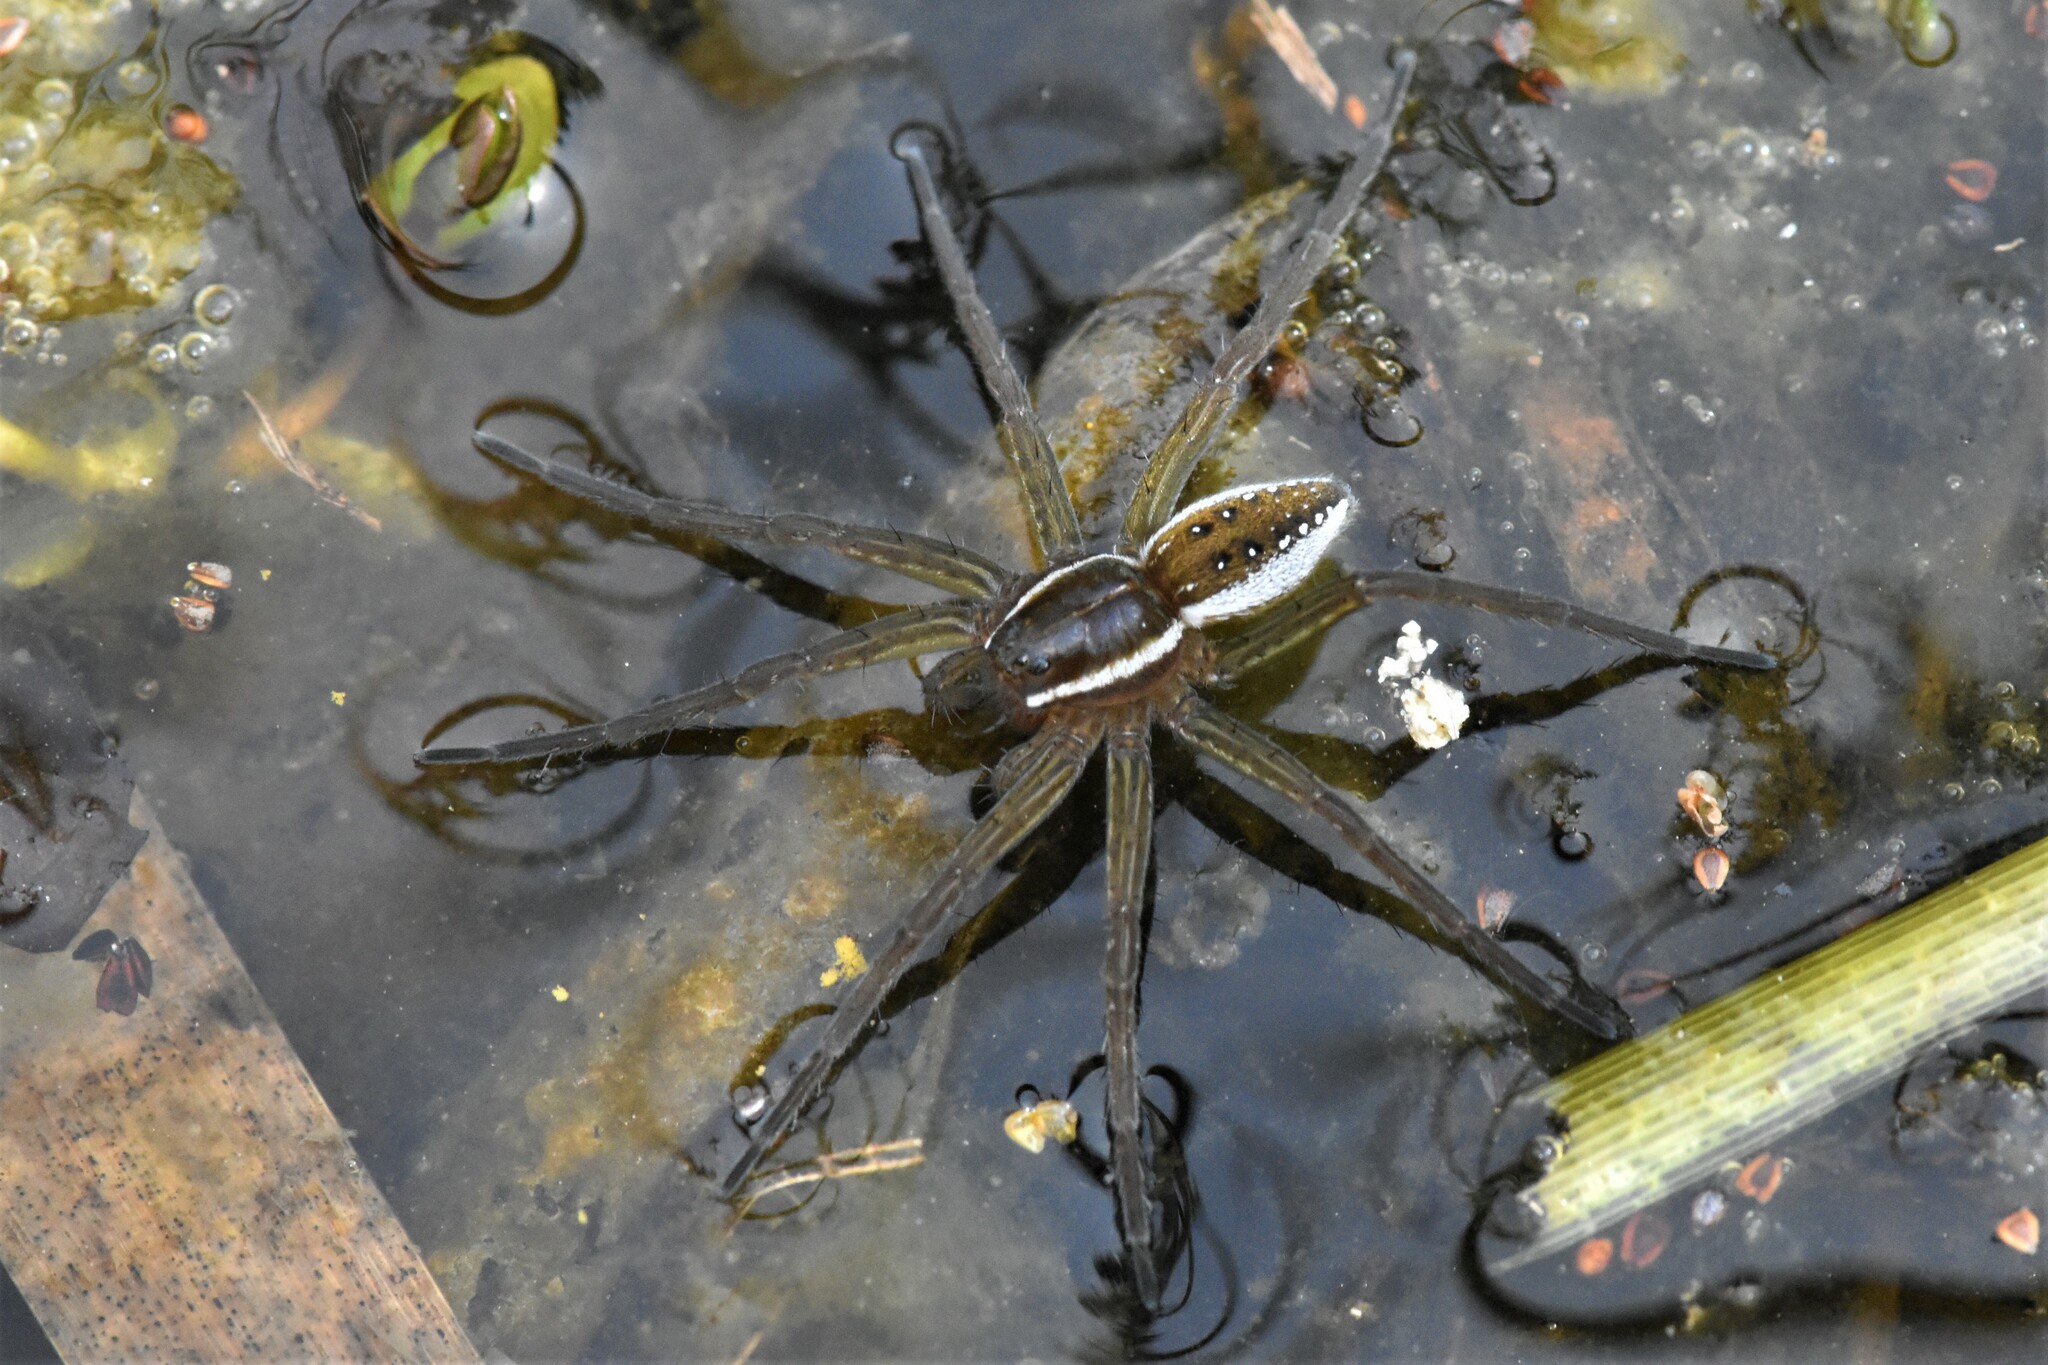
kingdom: Animalia
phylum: Arthropoda
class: Arachnida
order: Araneae
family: Pisauridae
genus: Dolomedes
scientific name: Dolomedes triton
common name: Six-spotted fishing spider
